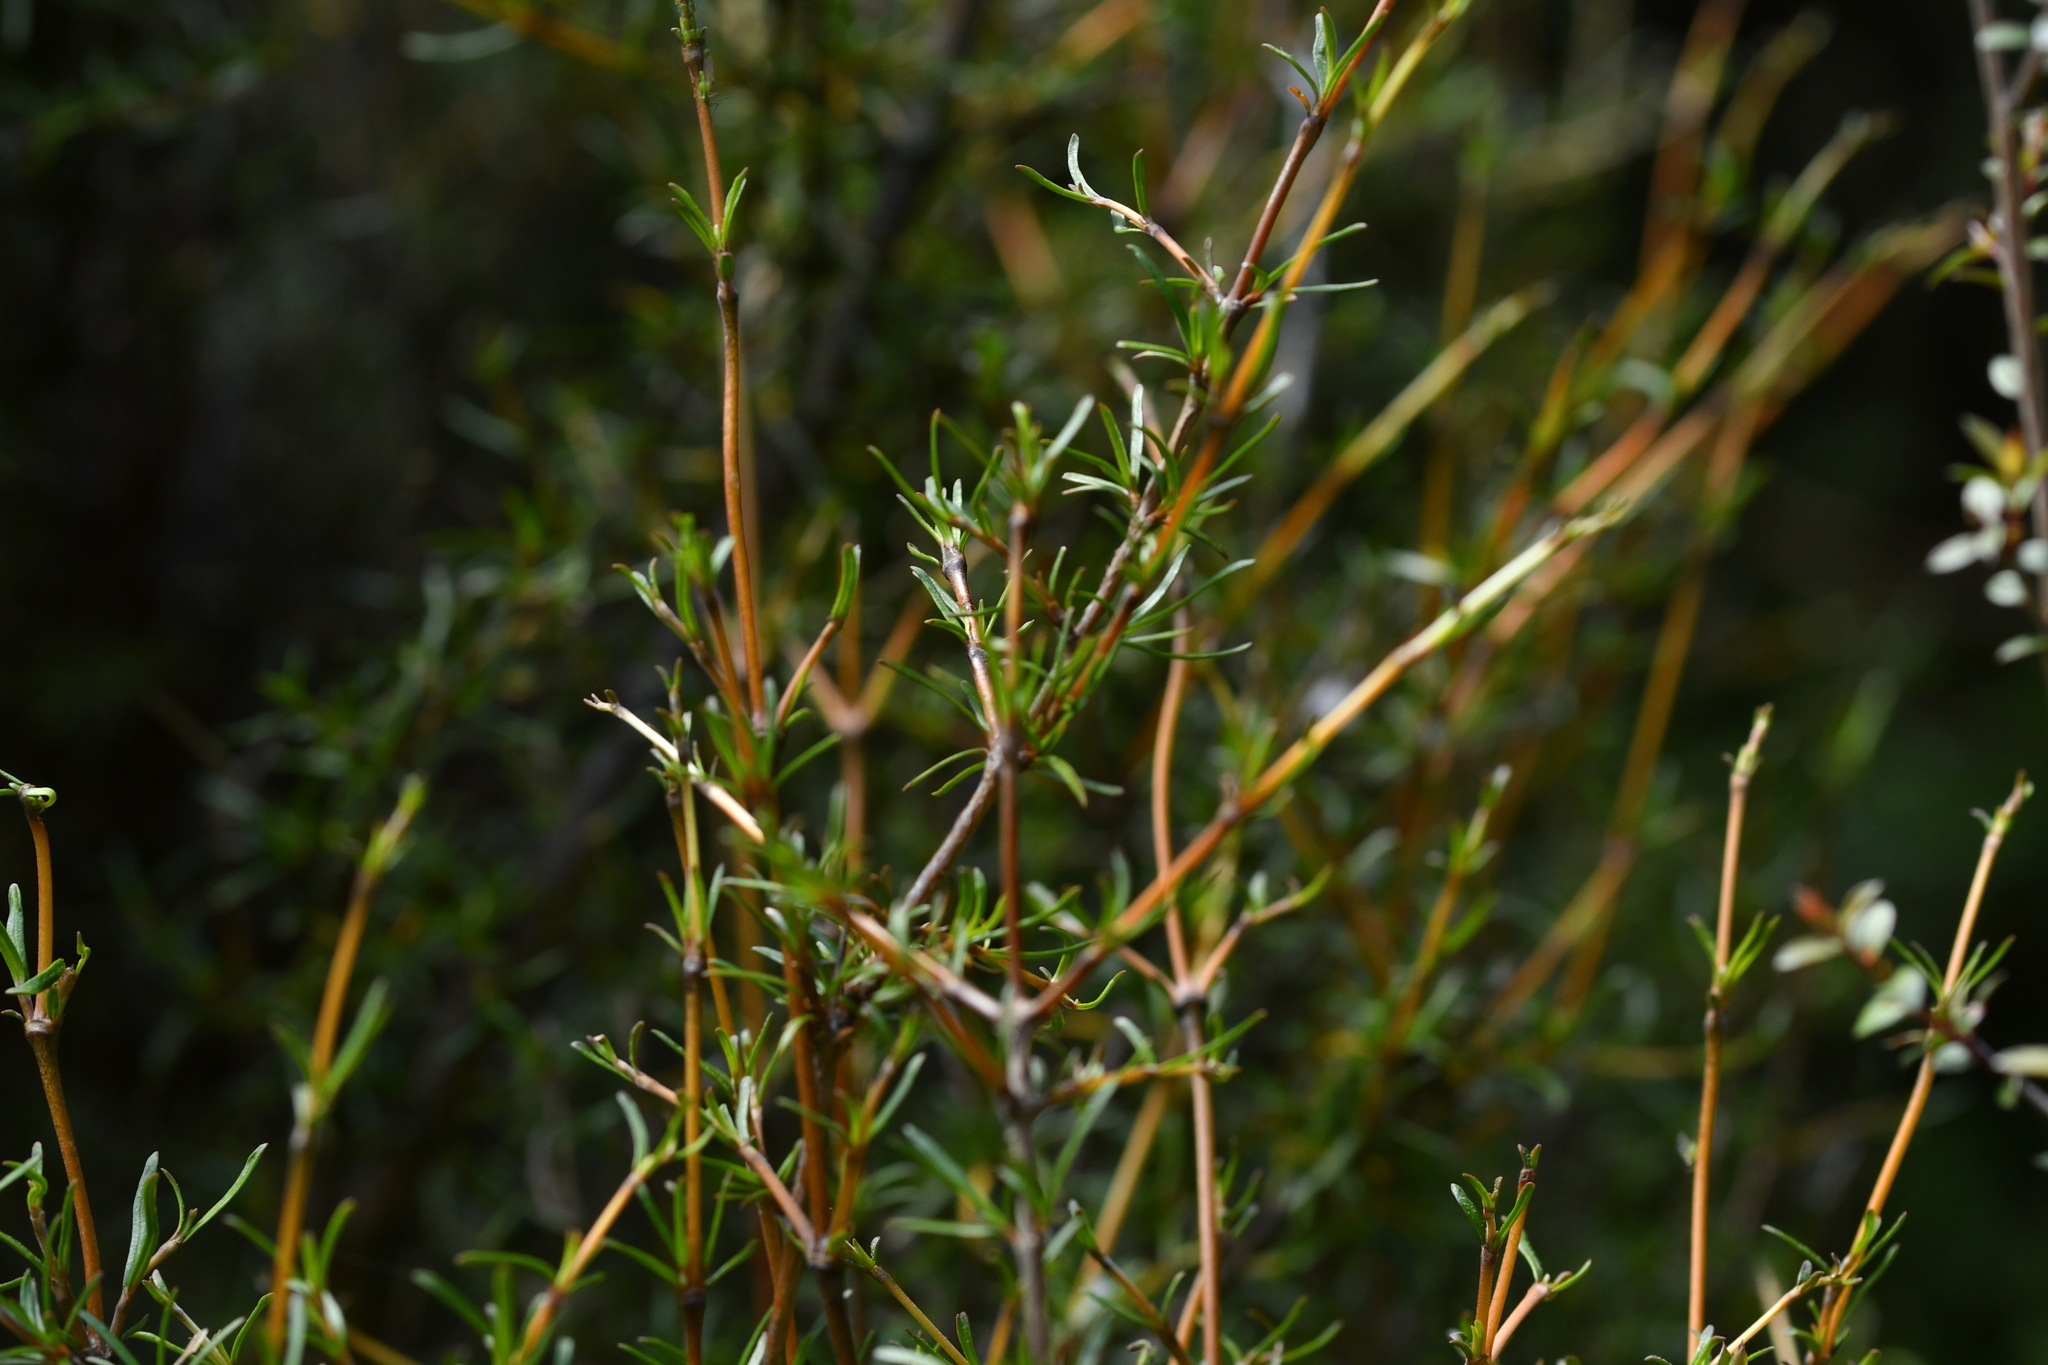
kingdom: Plantae
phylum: Tracheophyta
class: Magnoliopsida
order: Gentianales
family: Rubiaceae
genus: Coprosma
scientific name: Coprosma rugosa
